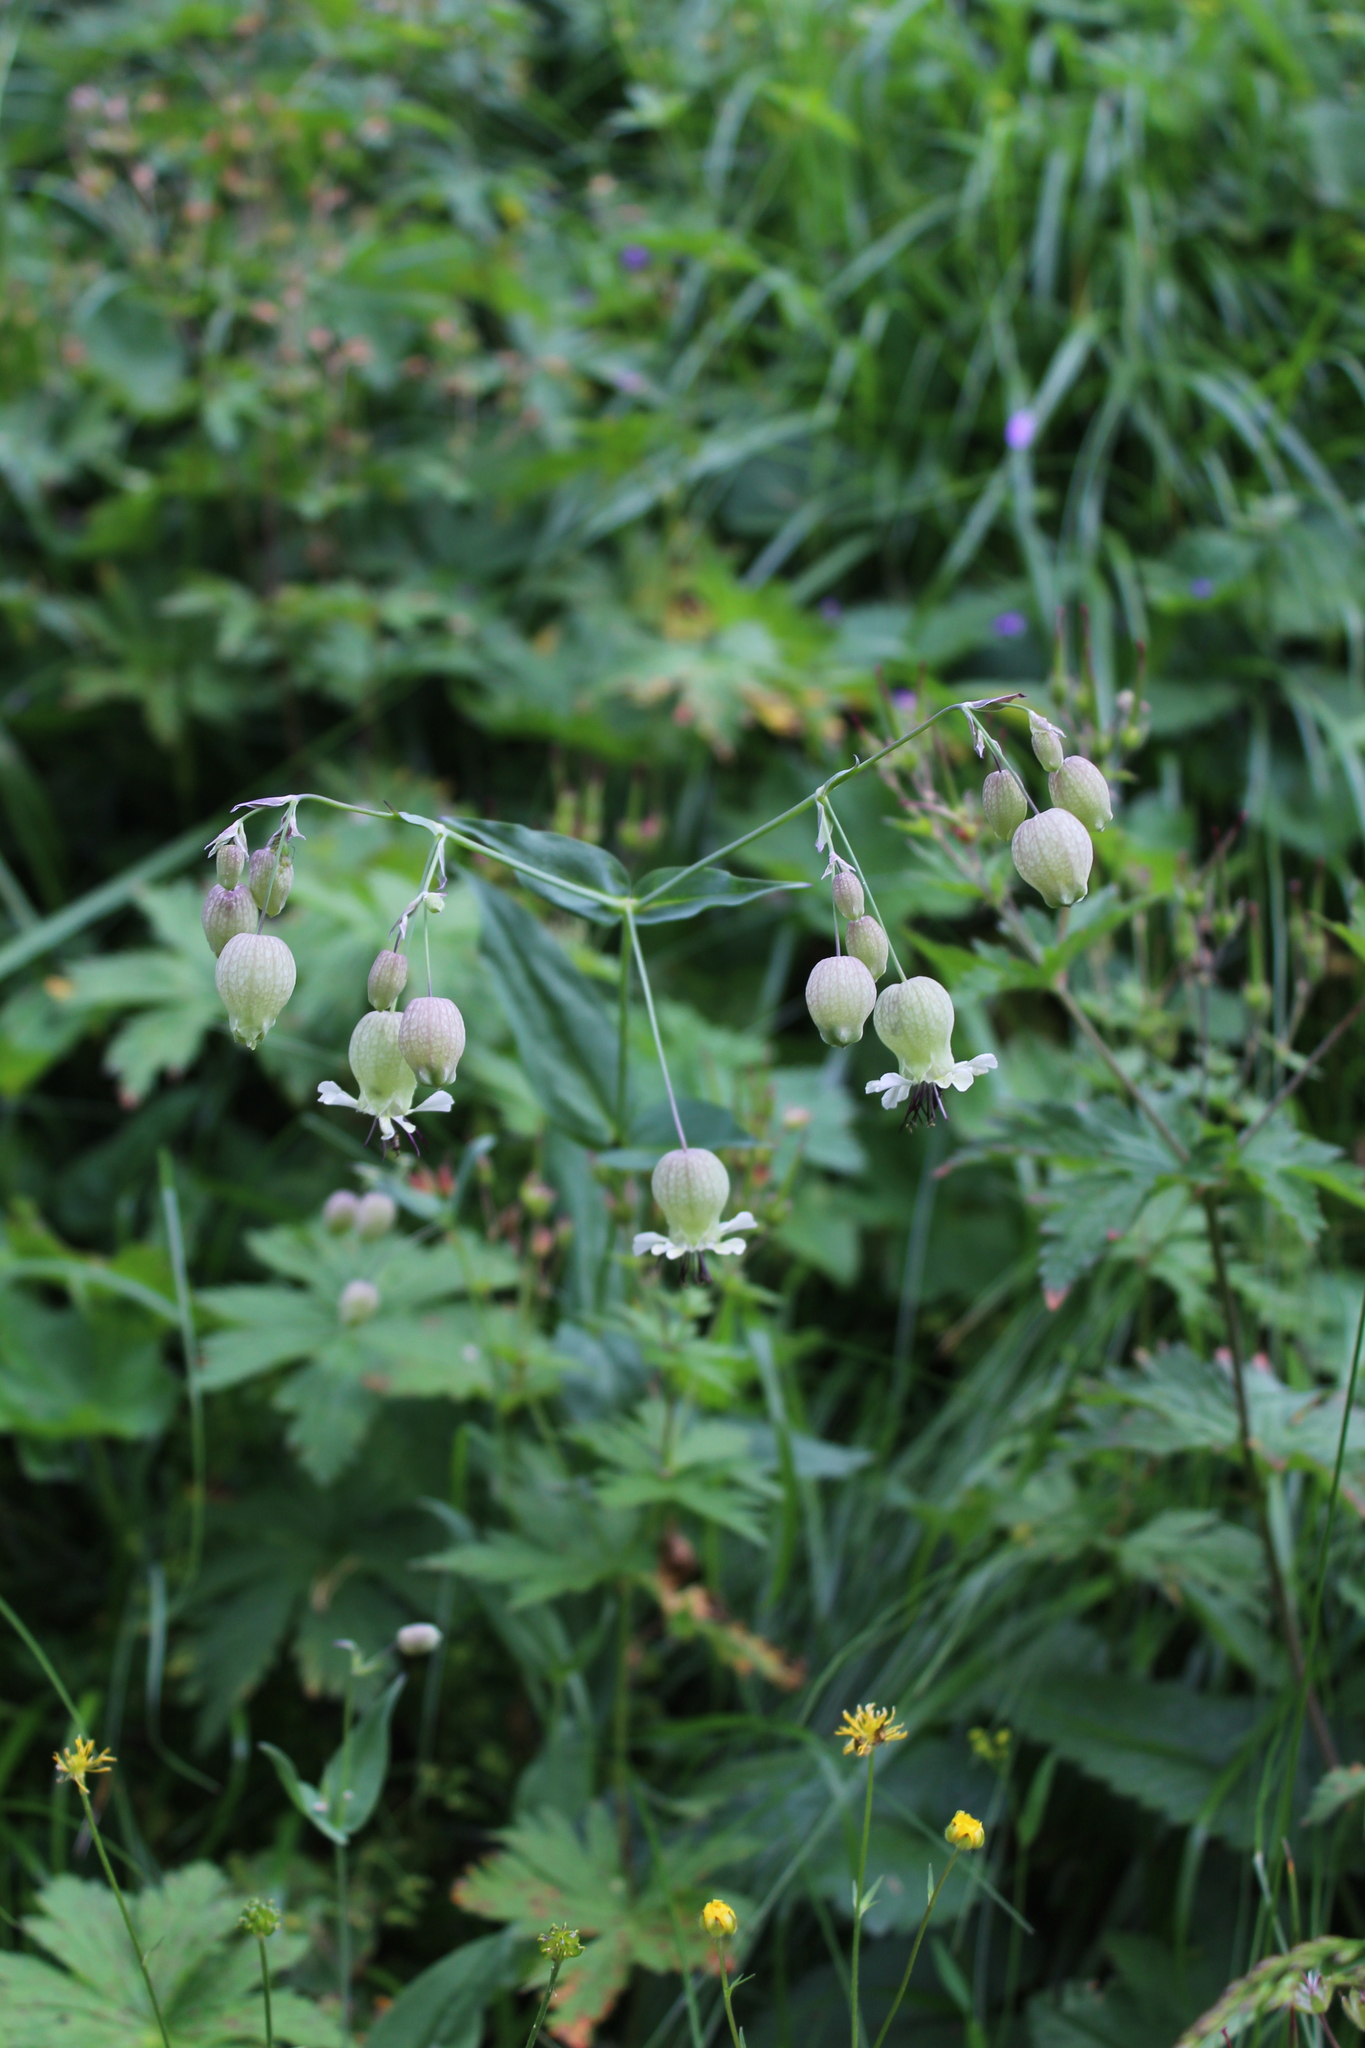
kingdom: Plantae
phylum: Tracheophyta
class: Magnoliopsida
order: Caryophyllales
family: Caryophyllaceae
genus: Silene
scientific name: Silene vulgaris
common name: Bladder campion
